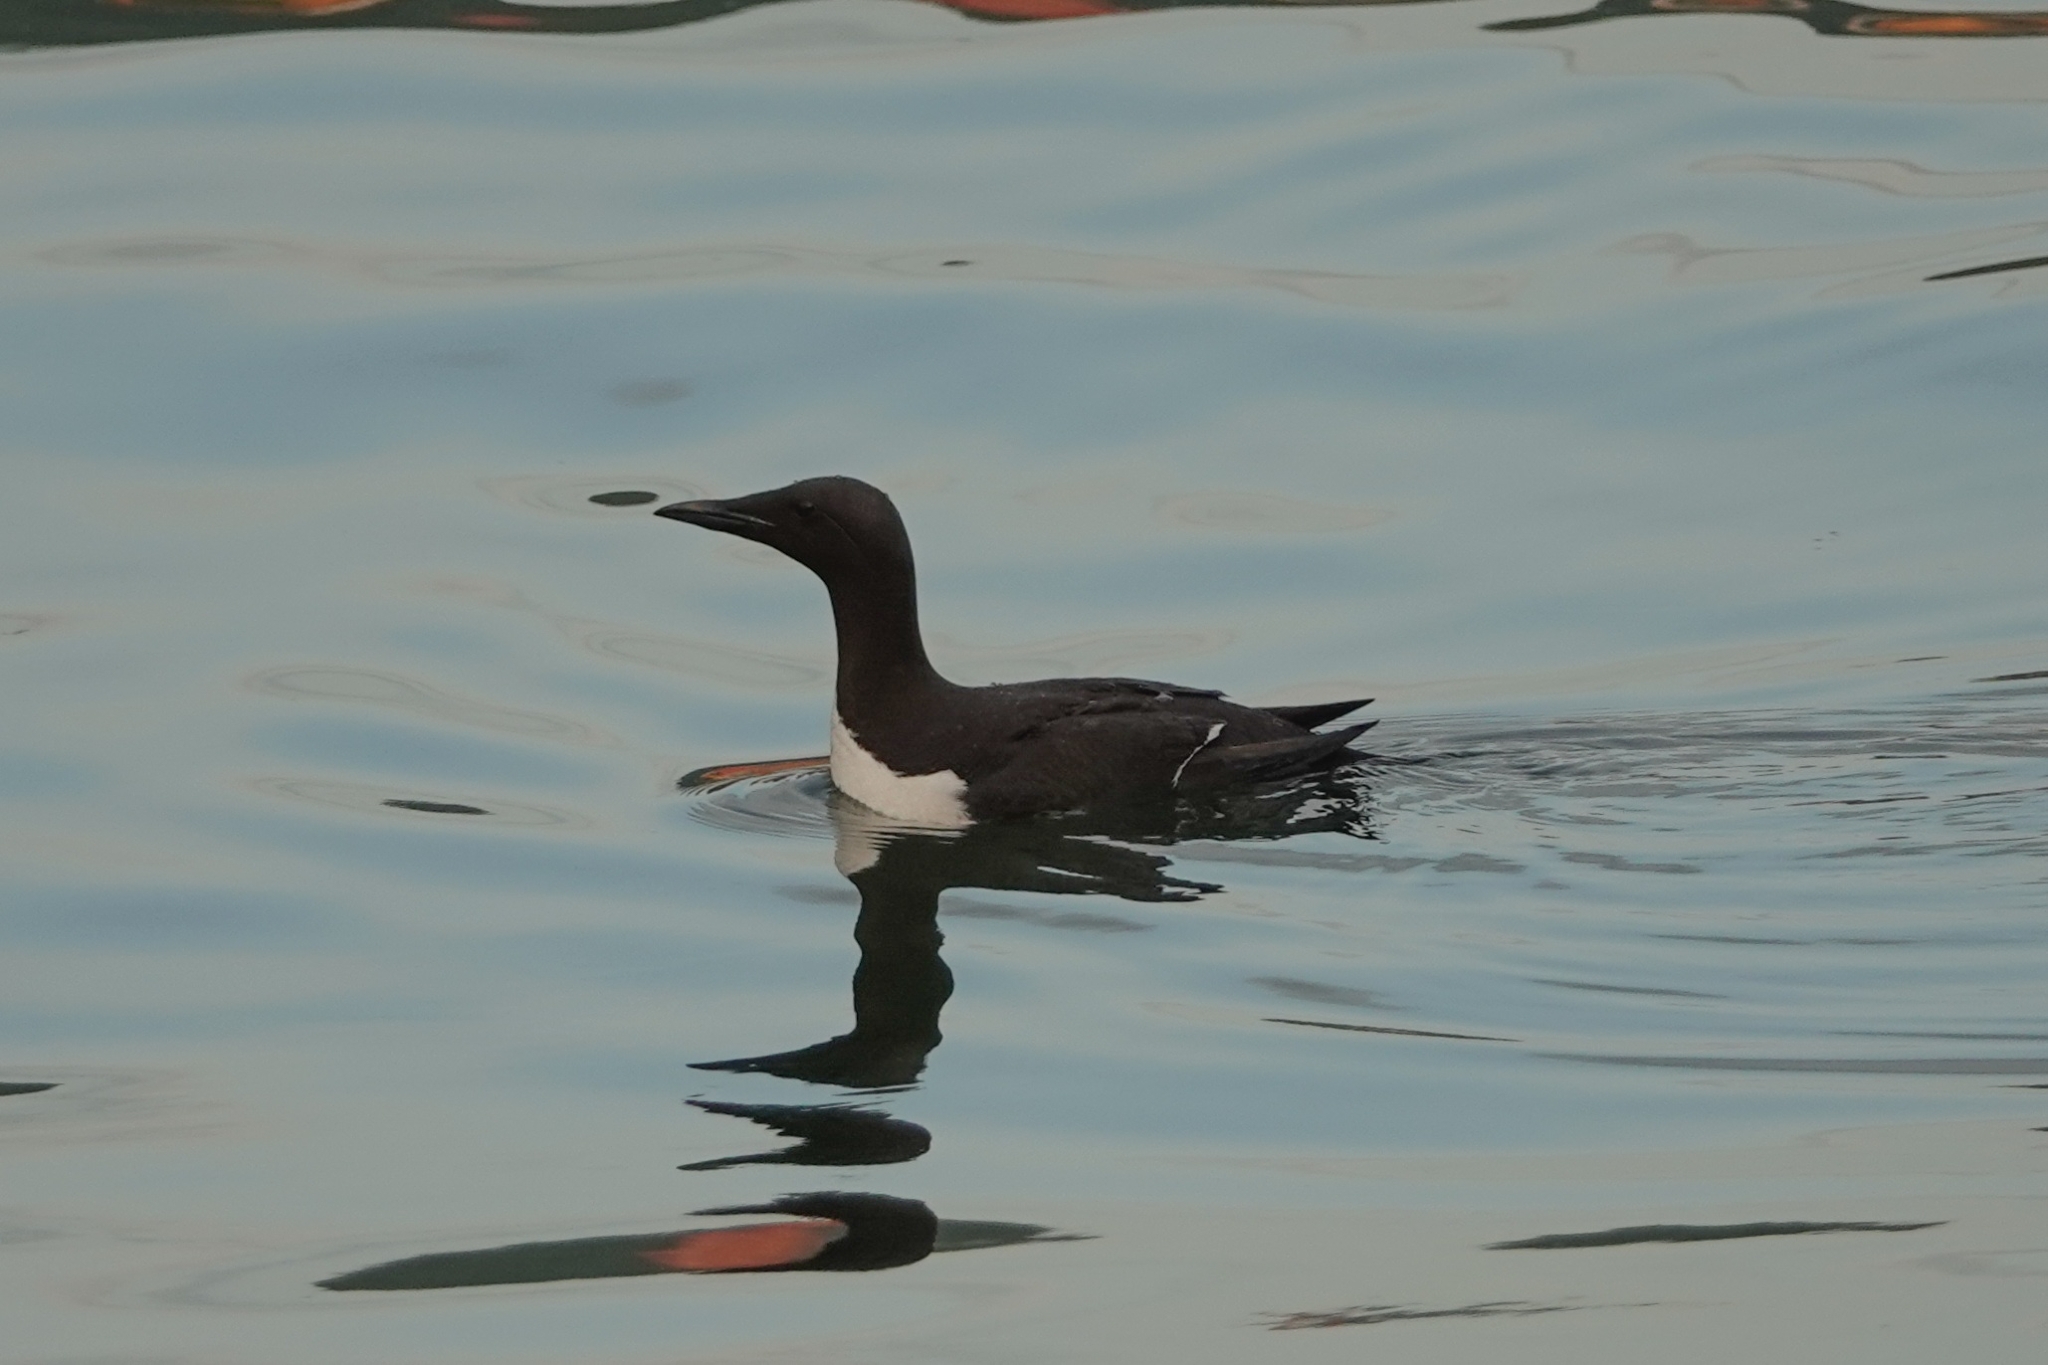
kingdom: Animalia
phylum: Chordata
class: Aves
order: Charadriiformes
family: Alcidae
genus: Uria
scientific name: Uria aalge
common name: Common murre
